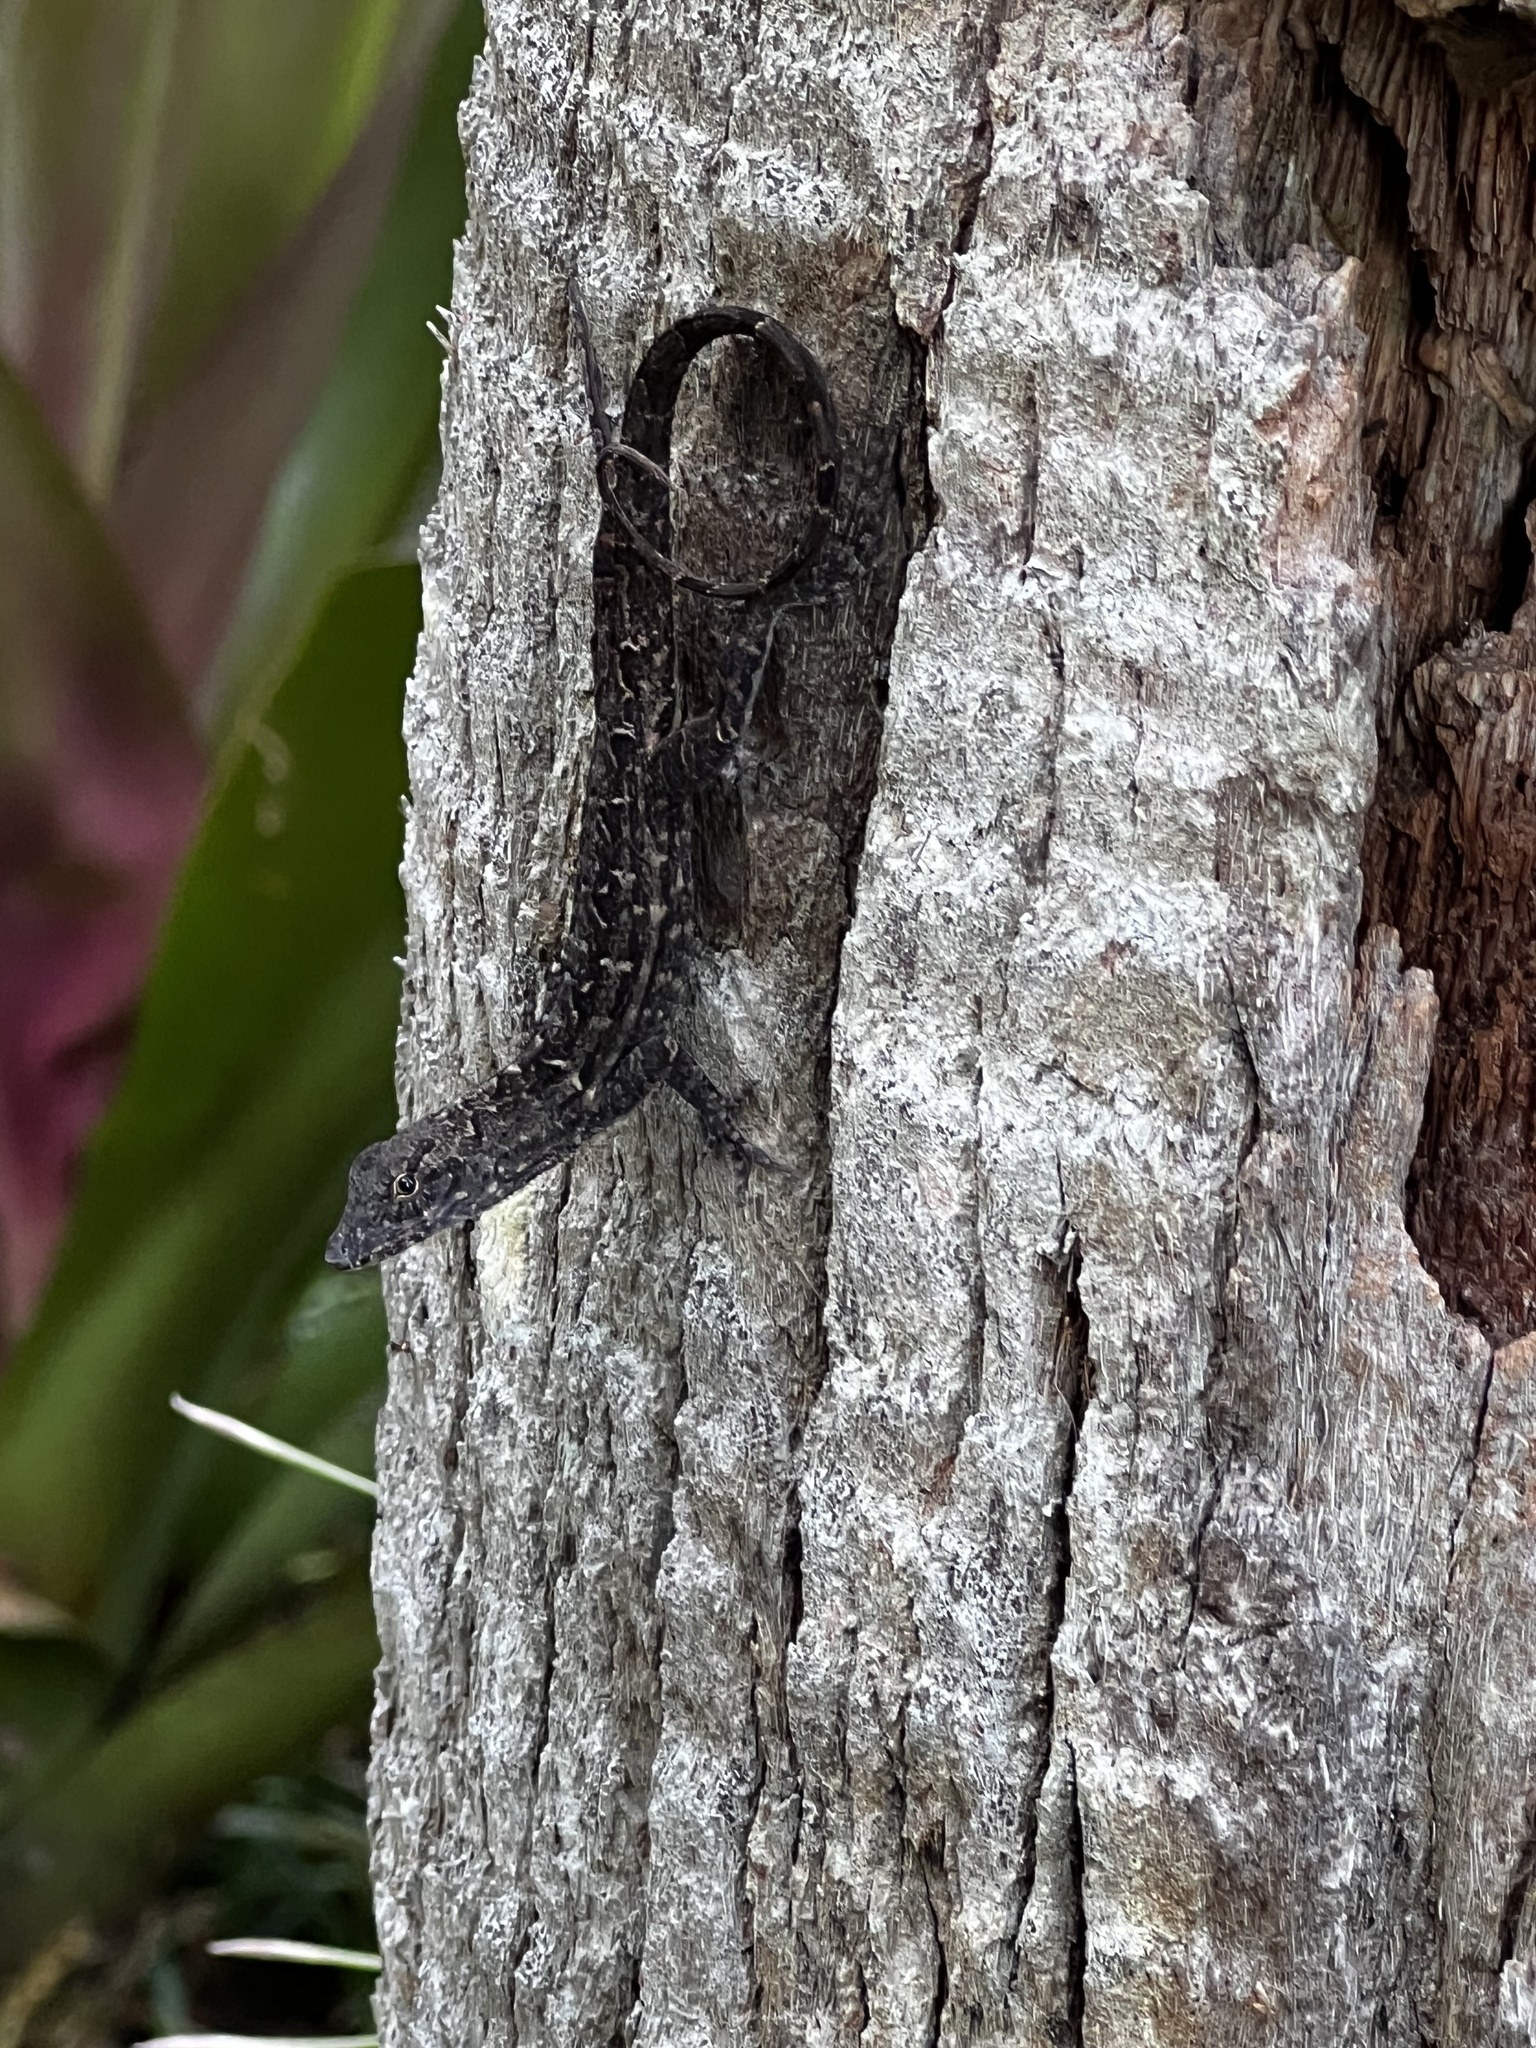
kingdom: Animalia
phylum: Chordata
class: Squamata
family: Dactyloidae
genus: Anolis
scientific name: Anolis sagrei
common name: Brown anole
